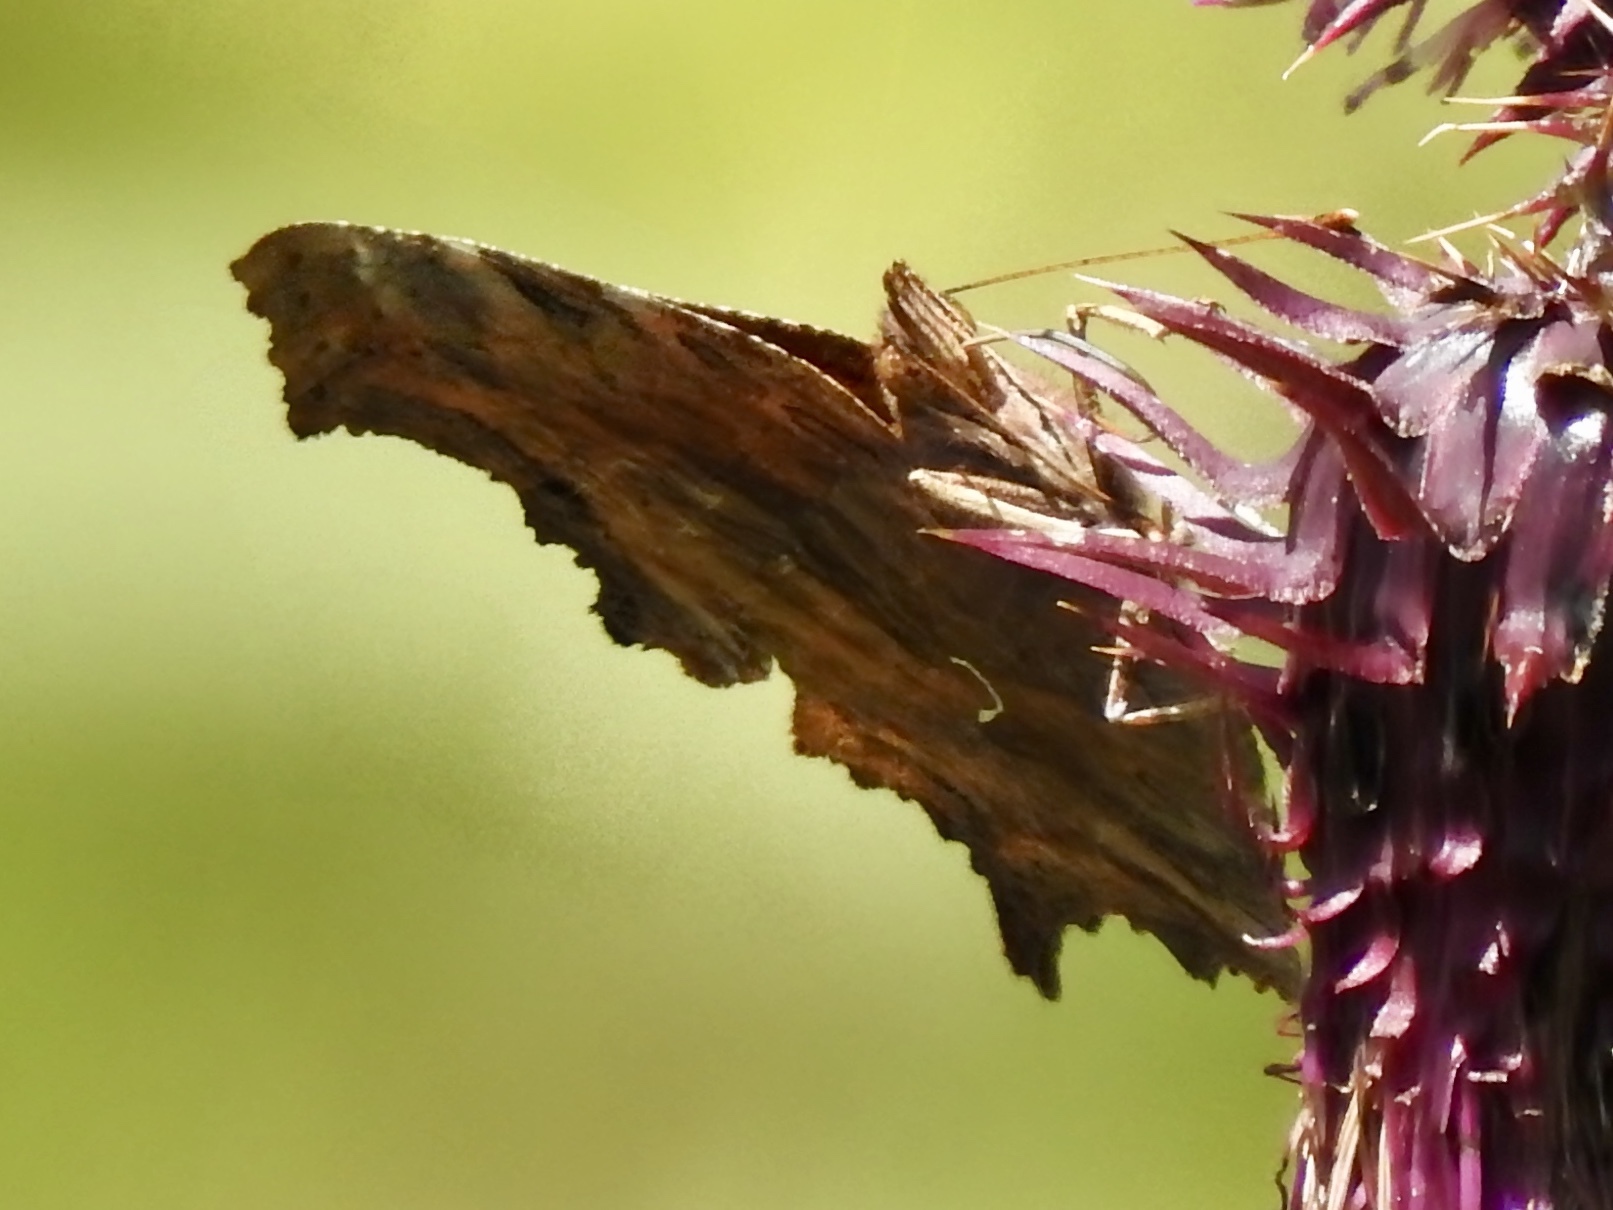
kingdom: Animalia
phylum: Arthropoda
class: Insecta
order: Lepidoptera
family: Nymphalidae
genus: Polygonia
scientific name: Polygonia satyrus
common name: Satyr angle wing
